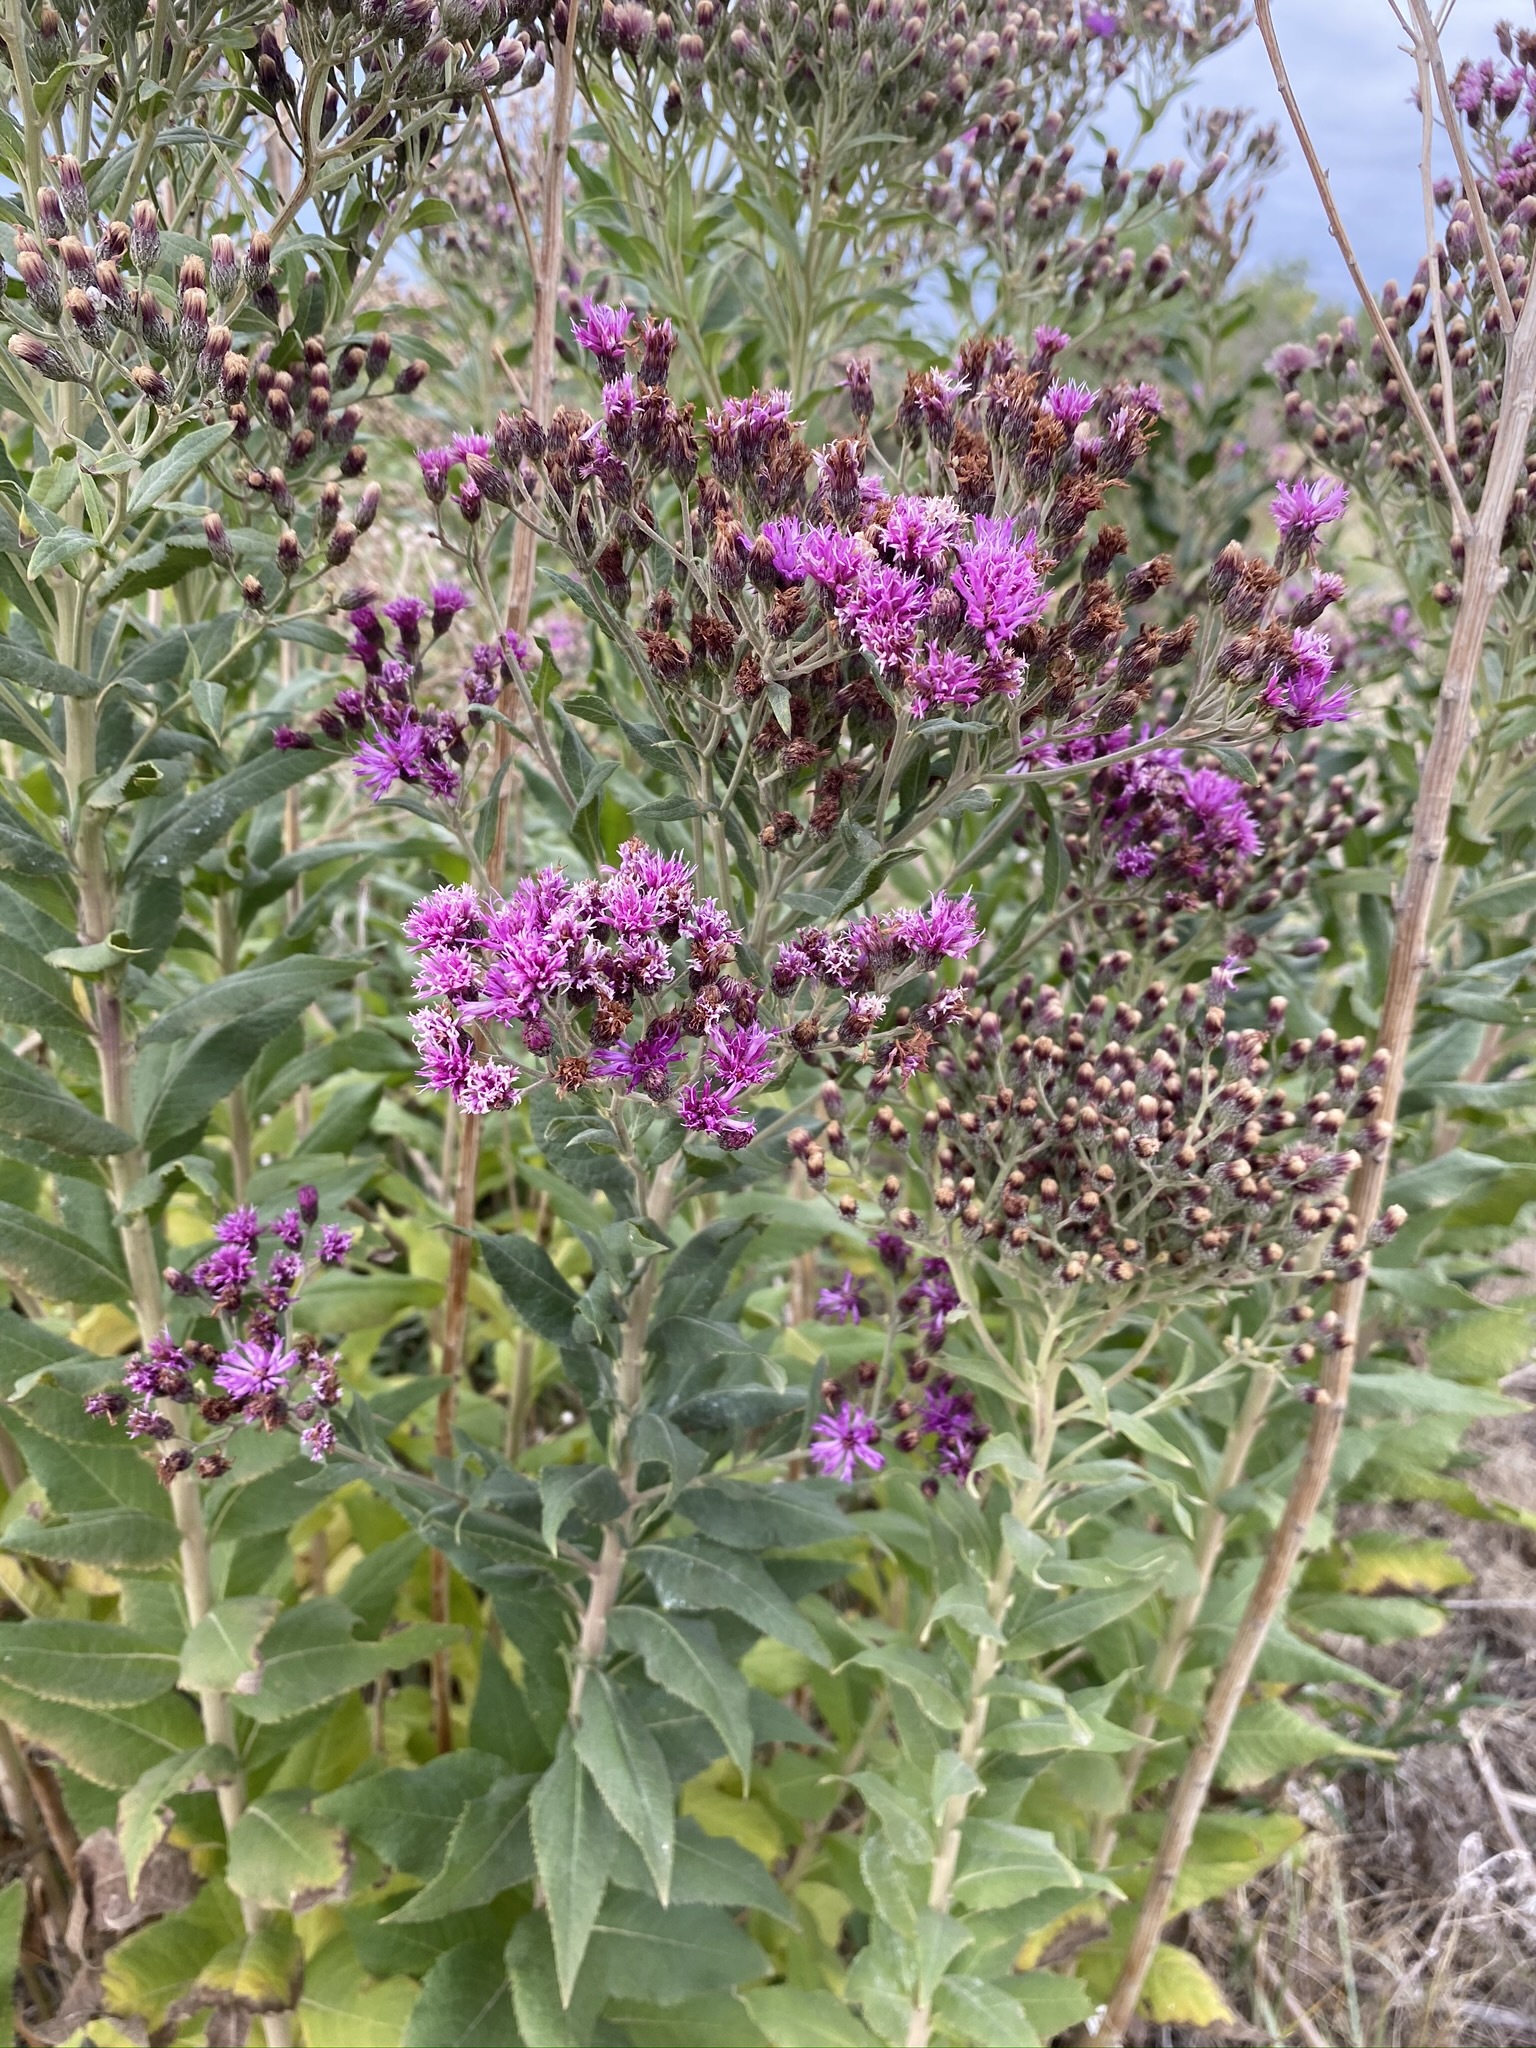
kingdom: Plantae
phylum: Tracheophyta
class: Magnoliopsida
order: Asterales
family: Asteraceae
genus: Vernonia
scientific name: Vernonia baldwinii
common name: Western ironweed
